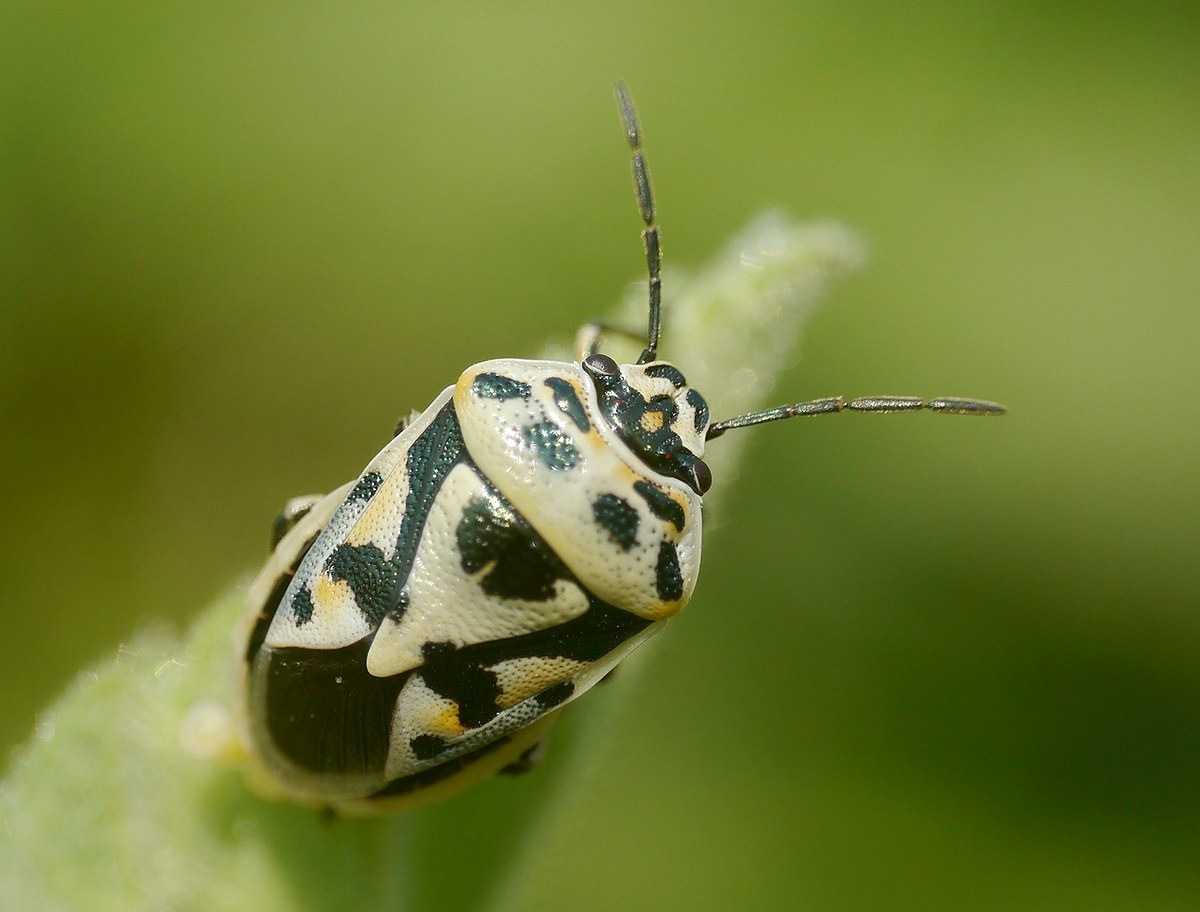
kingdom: Animalia
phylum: Arthropoda
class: Insecta
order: Hemiptera
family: Pentatomidae
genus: Eurydema
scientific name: Eurydema ornata
